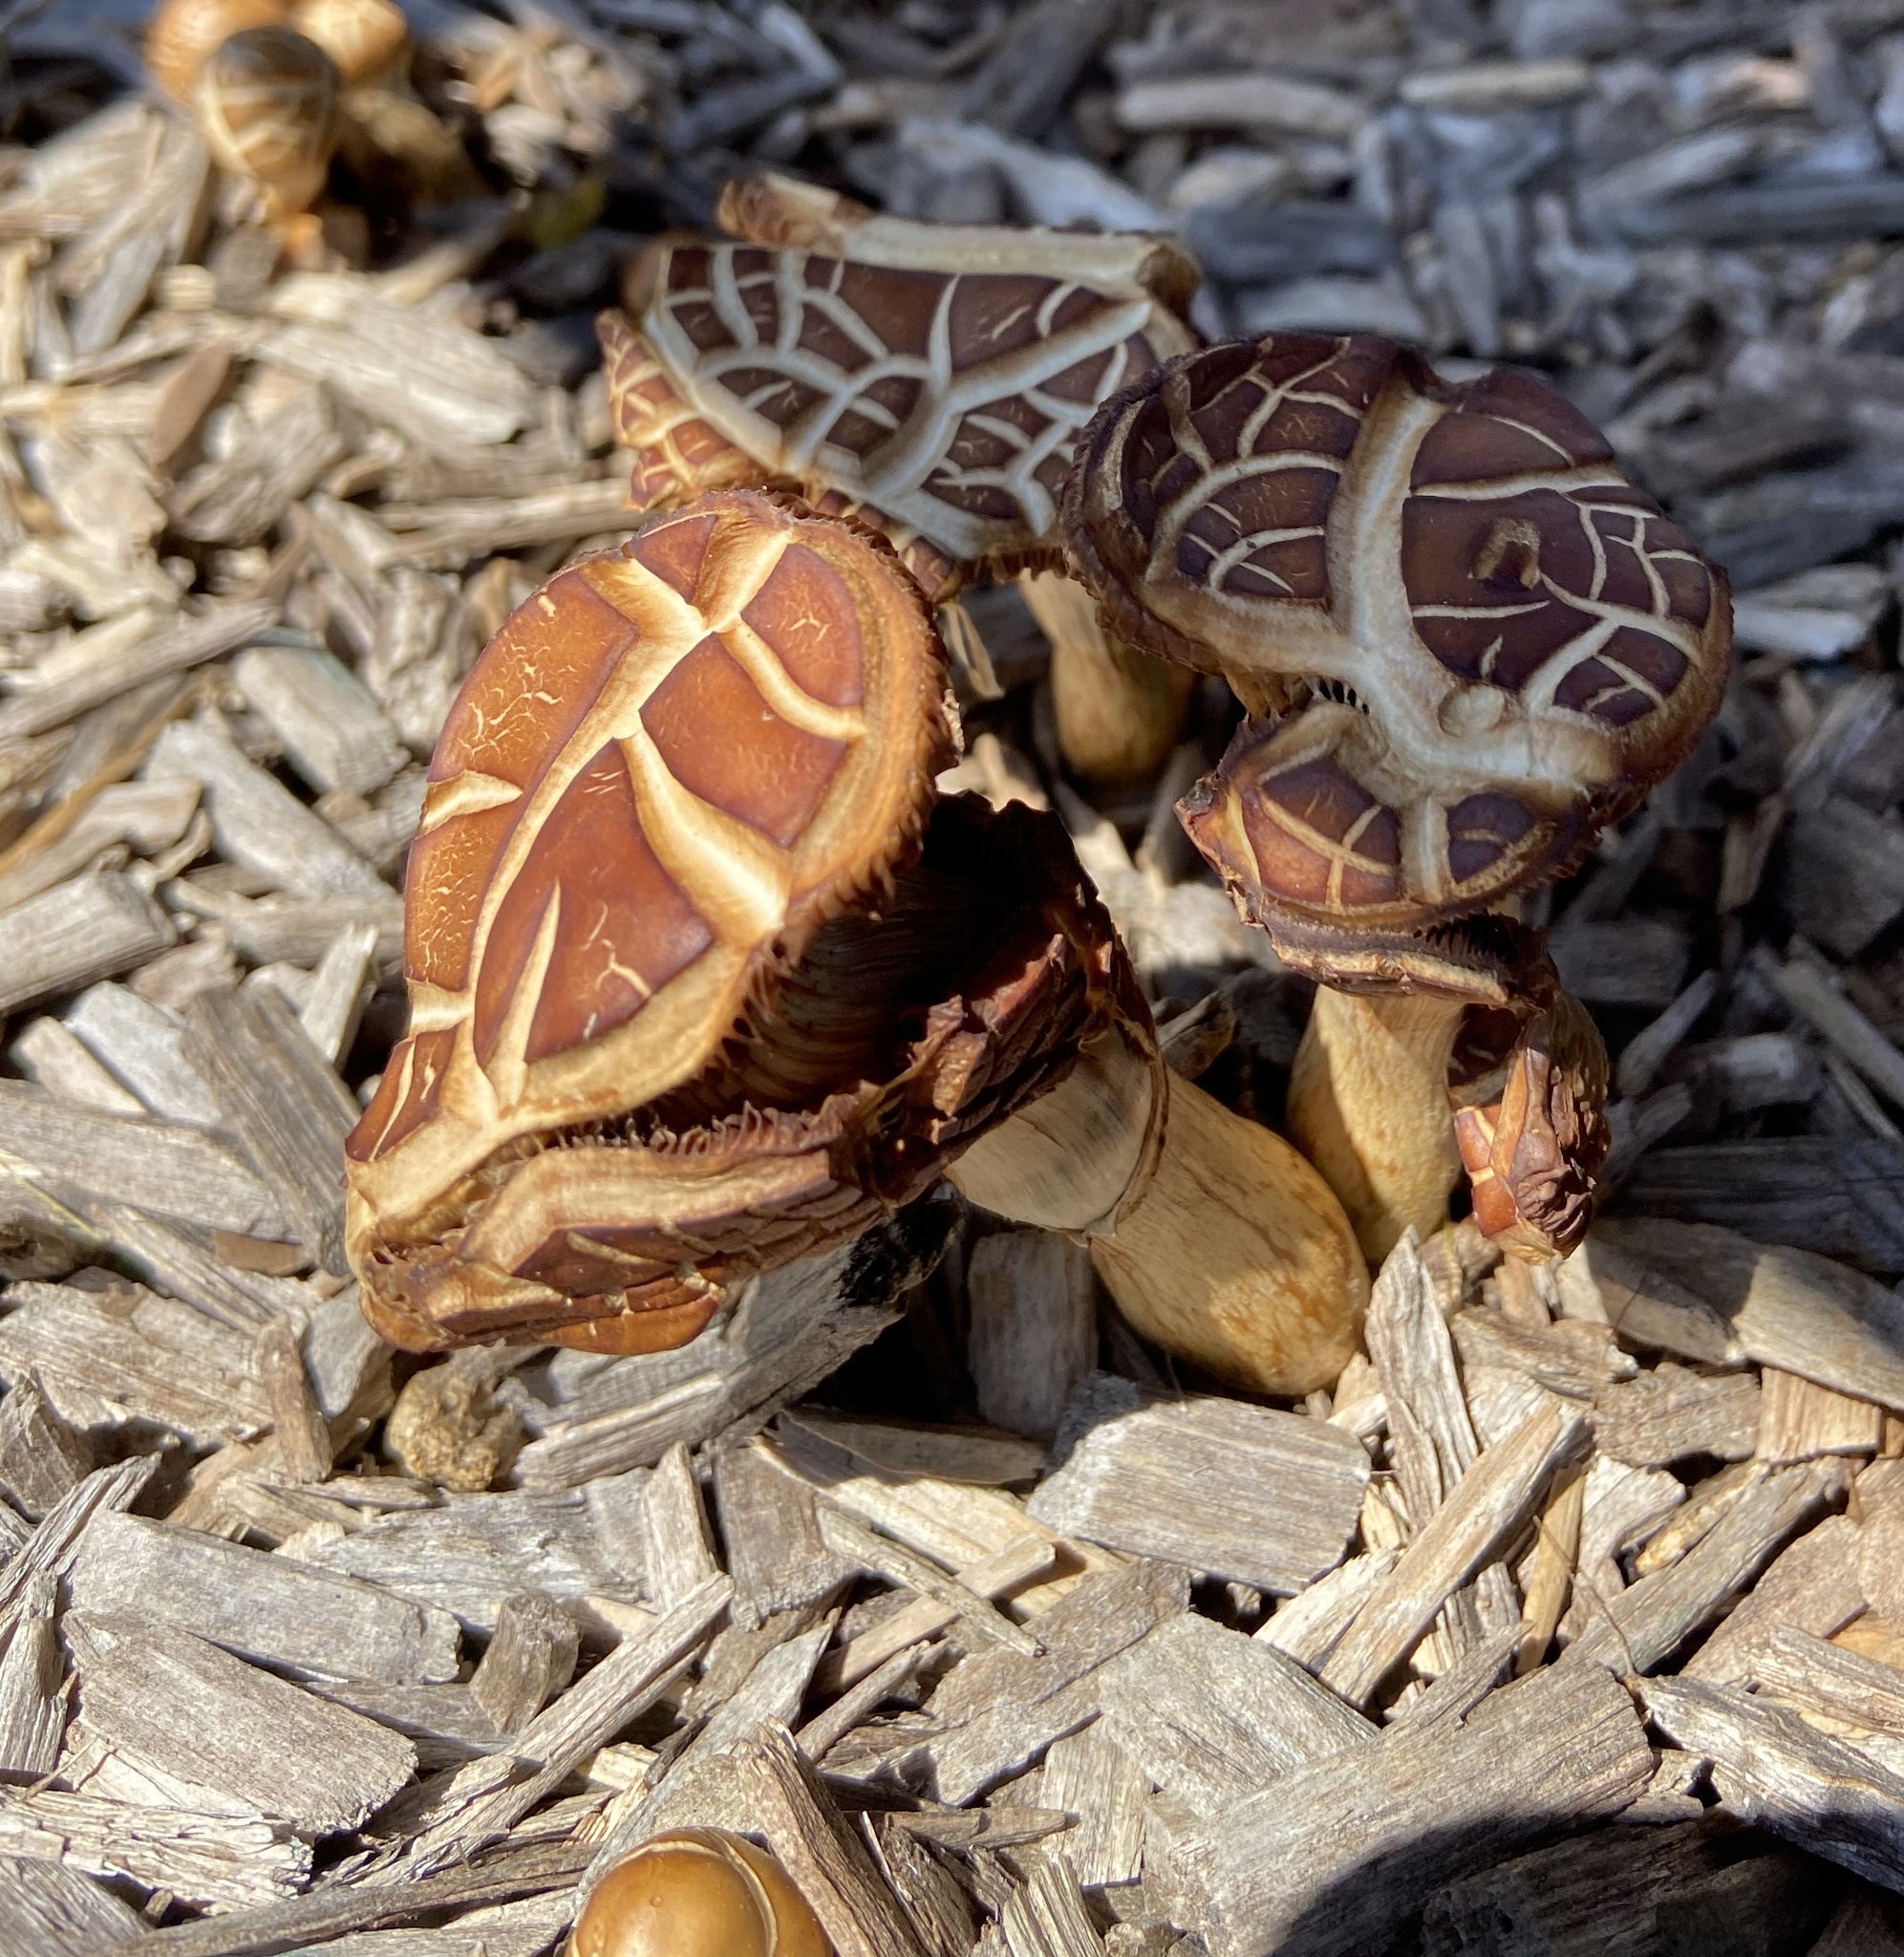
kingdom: Fungi
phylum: Basidiomycota
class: Agaricomycetes
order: Agaricales
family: Strophariaceae
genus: Agrocybe
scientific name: Agrocybe praecox
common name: Spring fieldcap
